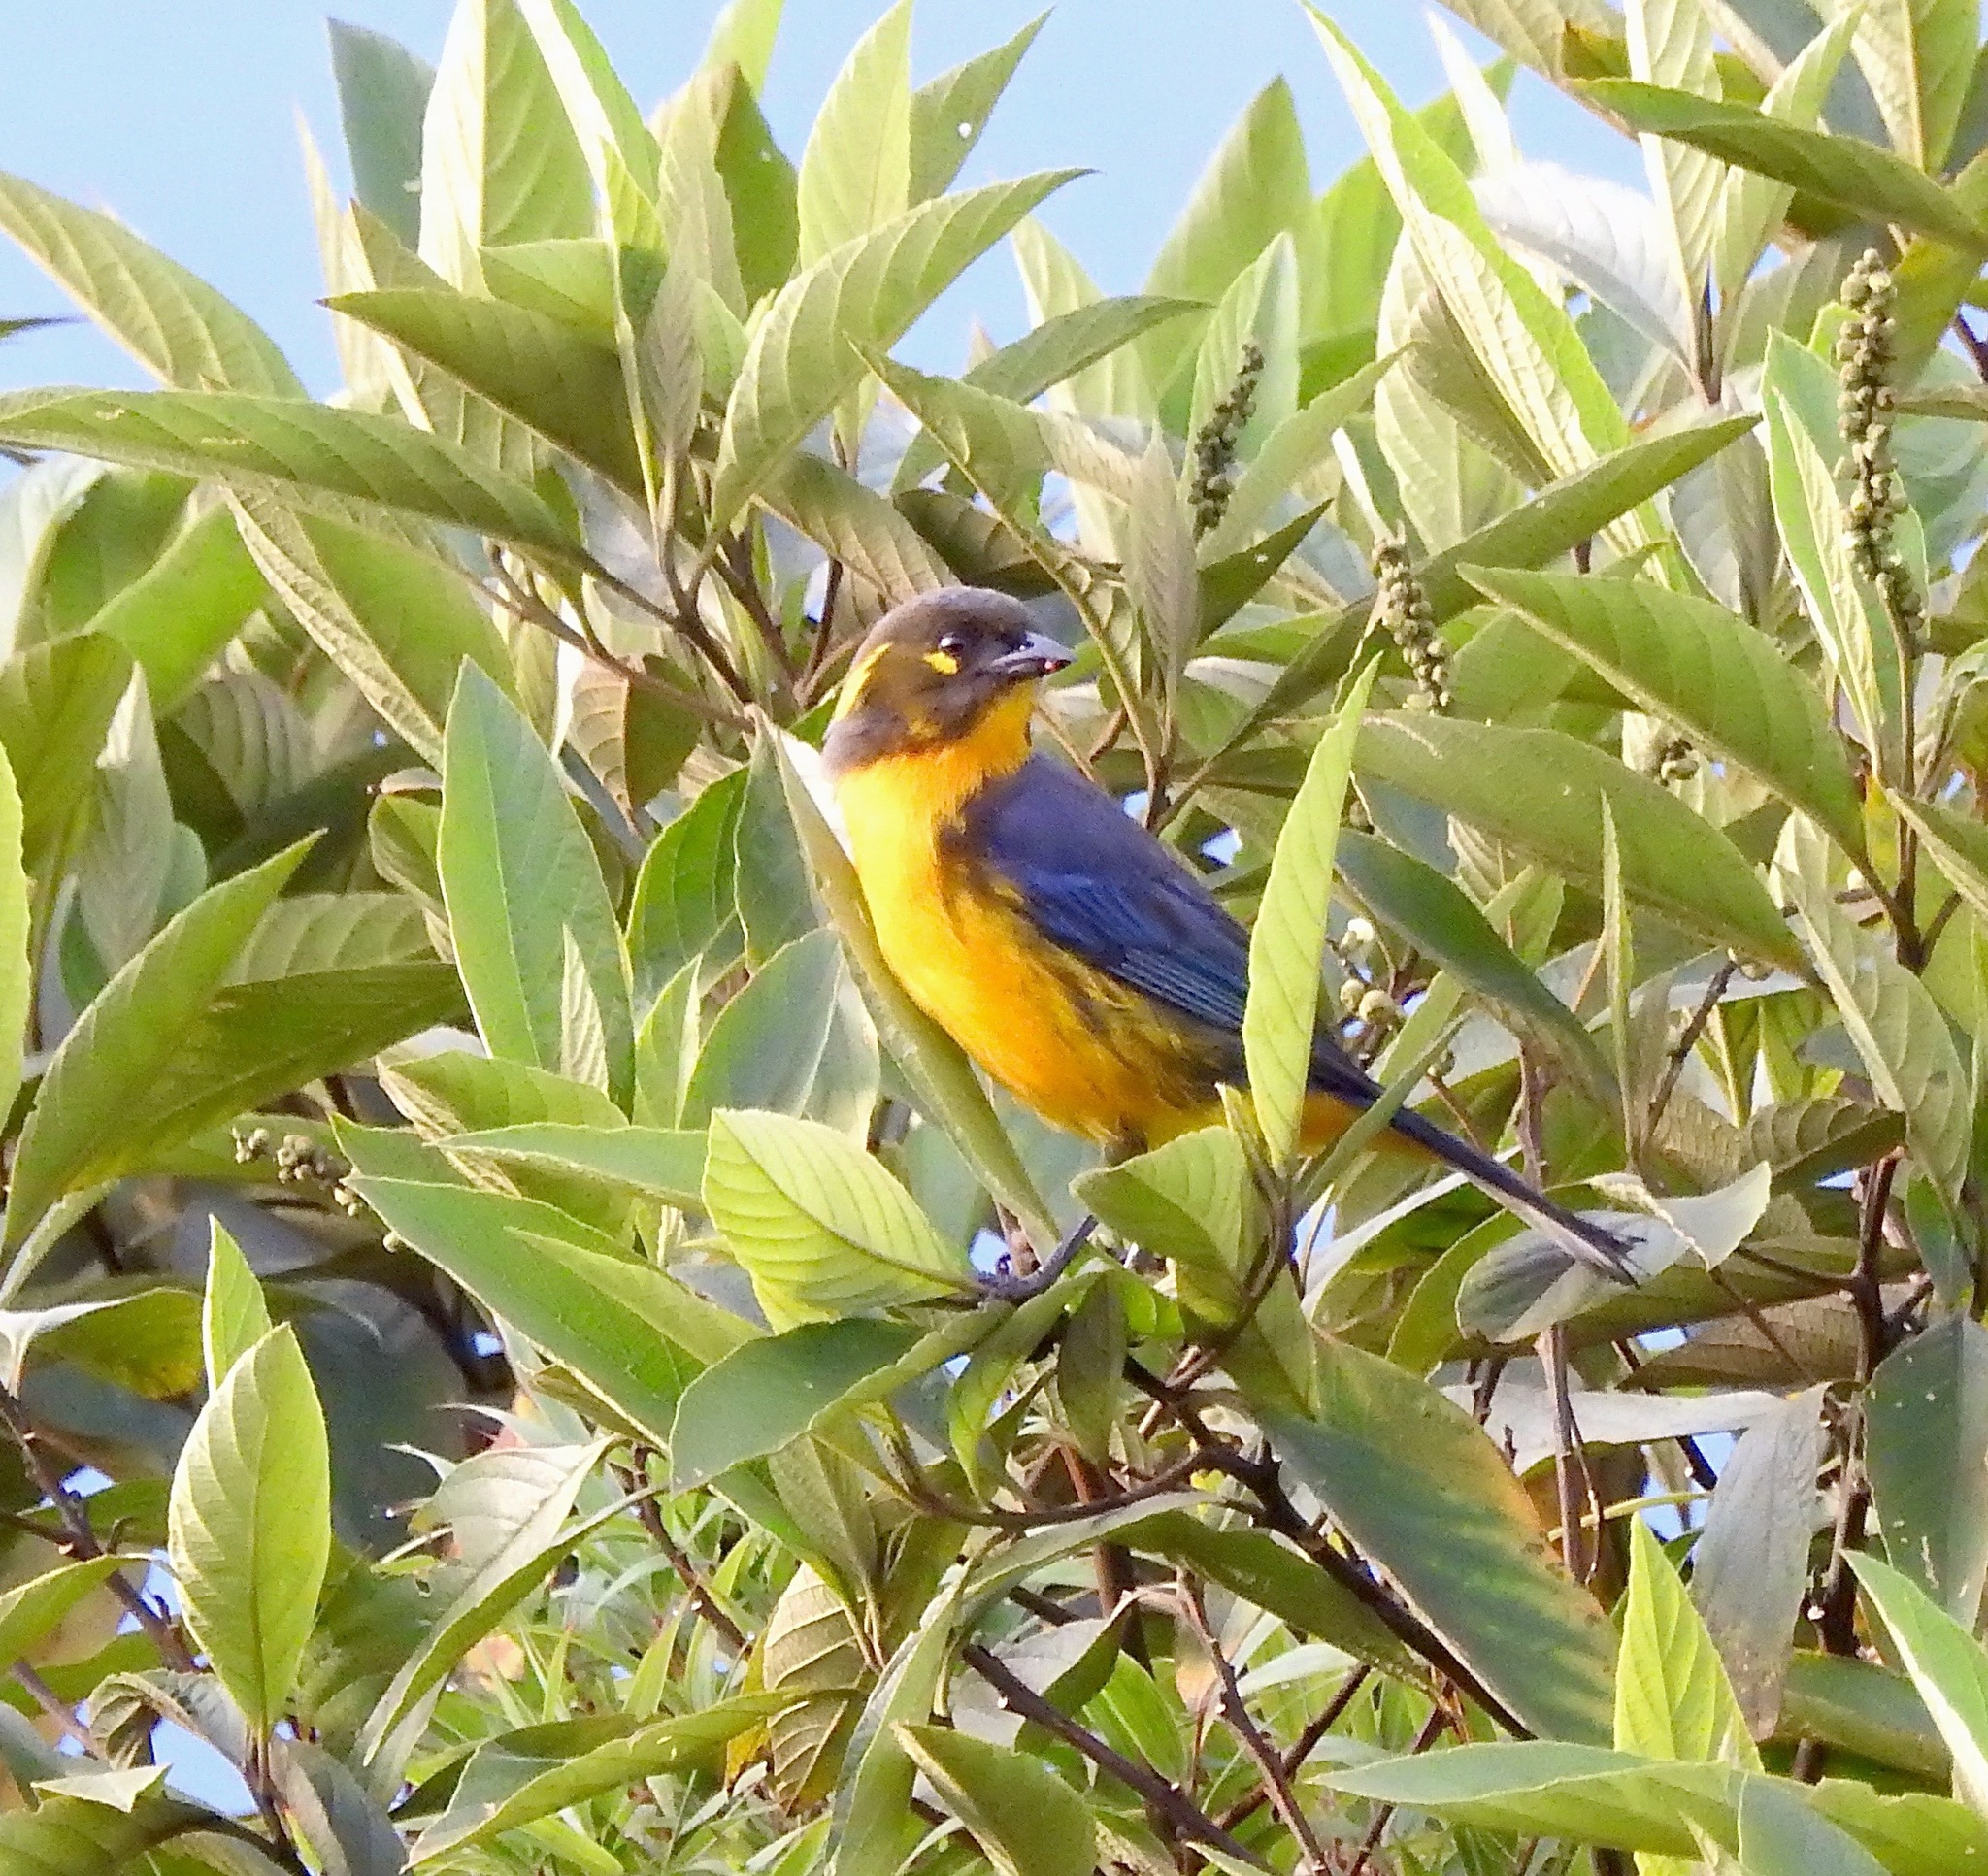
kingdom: Animalia
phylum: Chordata
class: Aves
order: Passeriformes
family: Thraupidae
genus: Anisognathus
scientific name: Anisognathus lacrymosus
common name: Lacrimose mountain-tanager
